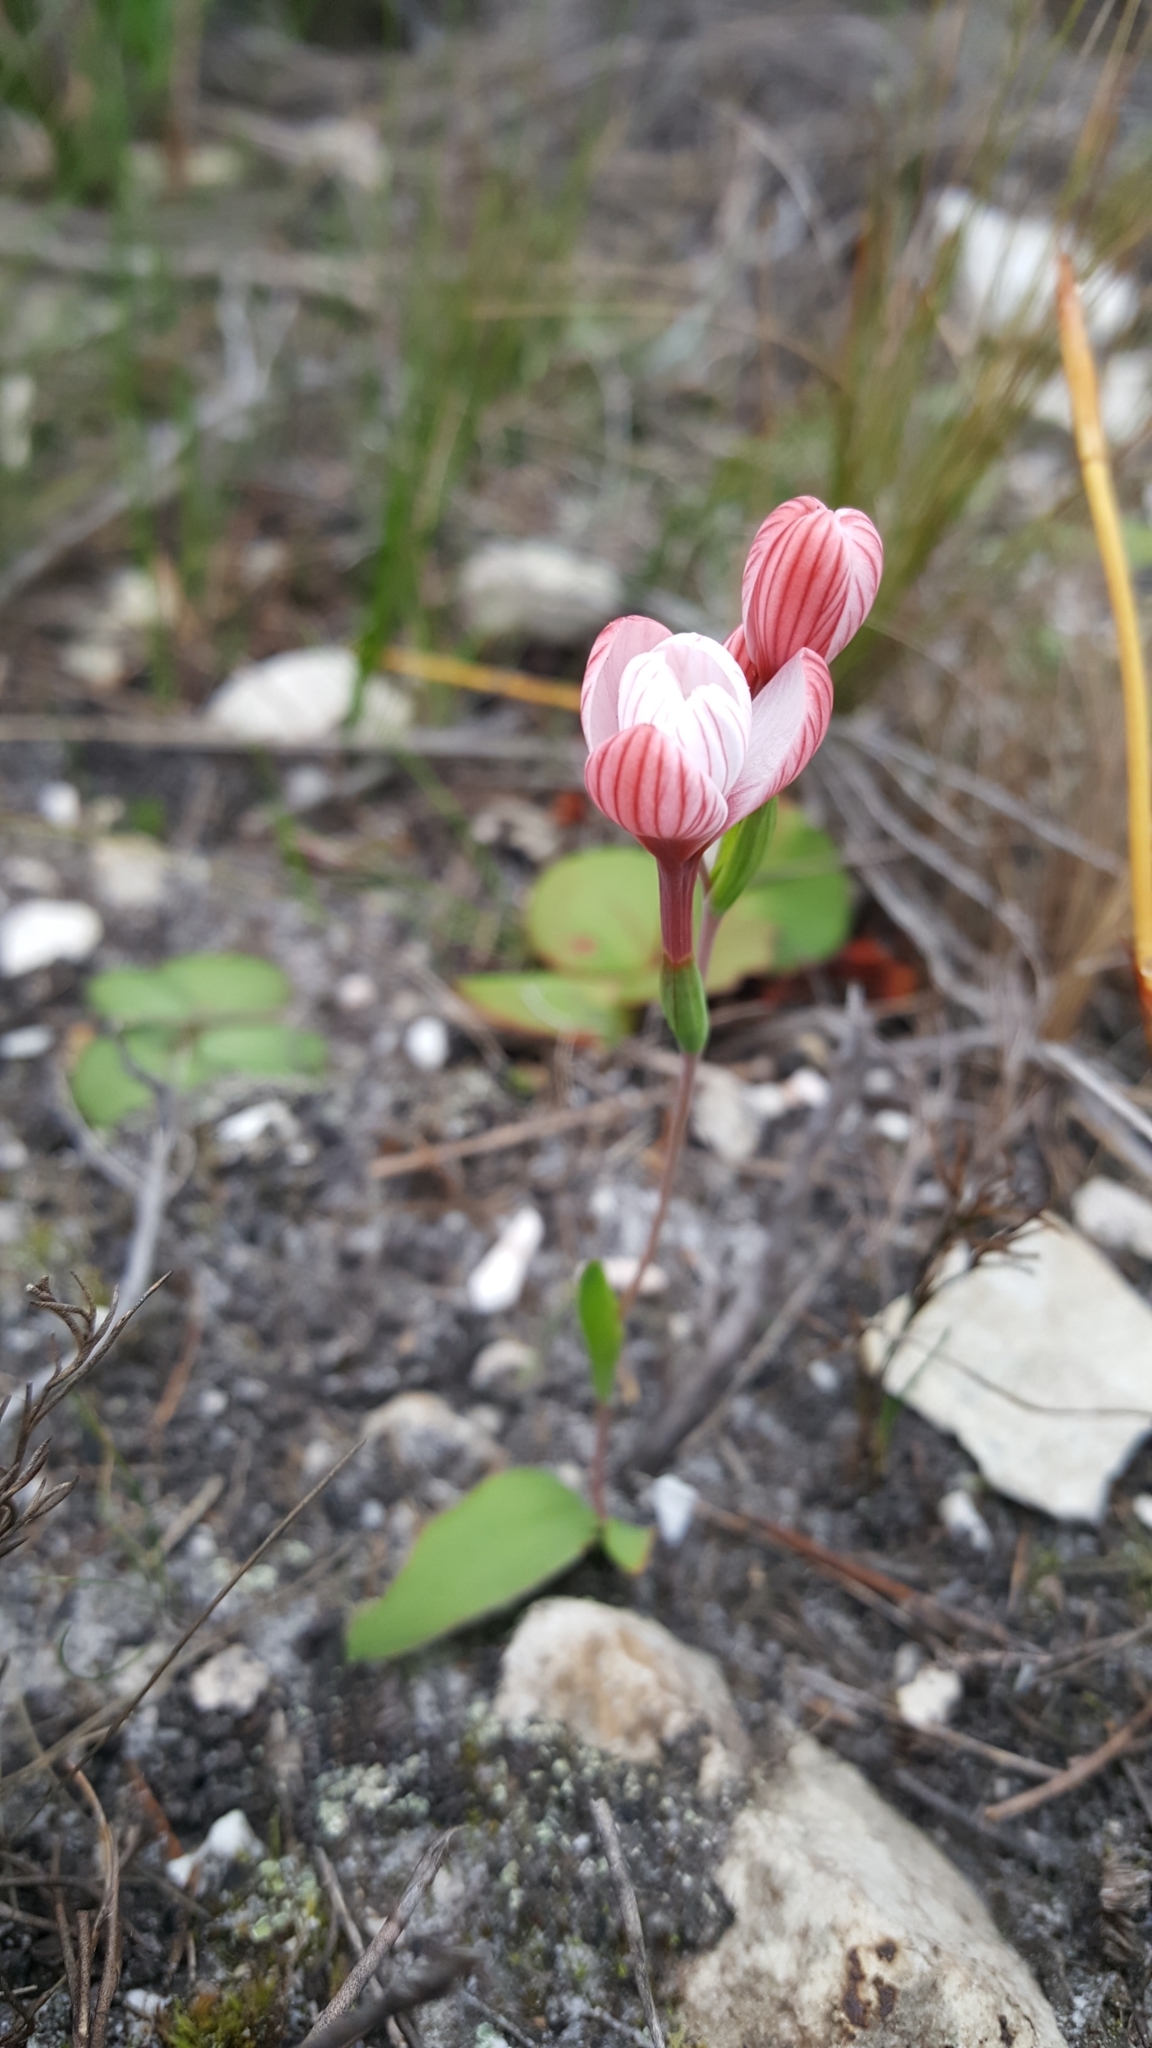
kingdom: Plantae
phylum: Tracheophyta
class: Liliopsida
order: Asparagales
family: Iridaceae
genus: Geissorhiza
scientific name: Geissorhiza ovata
